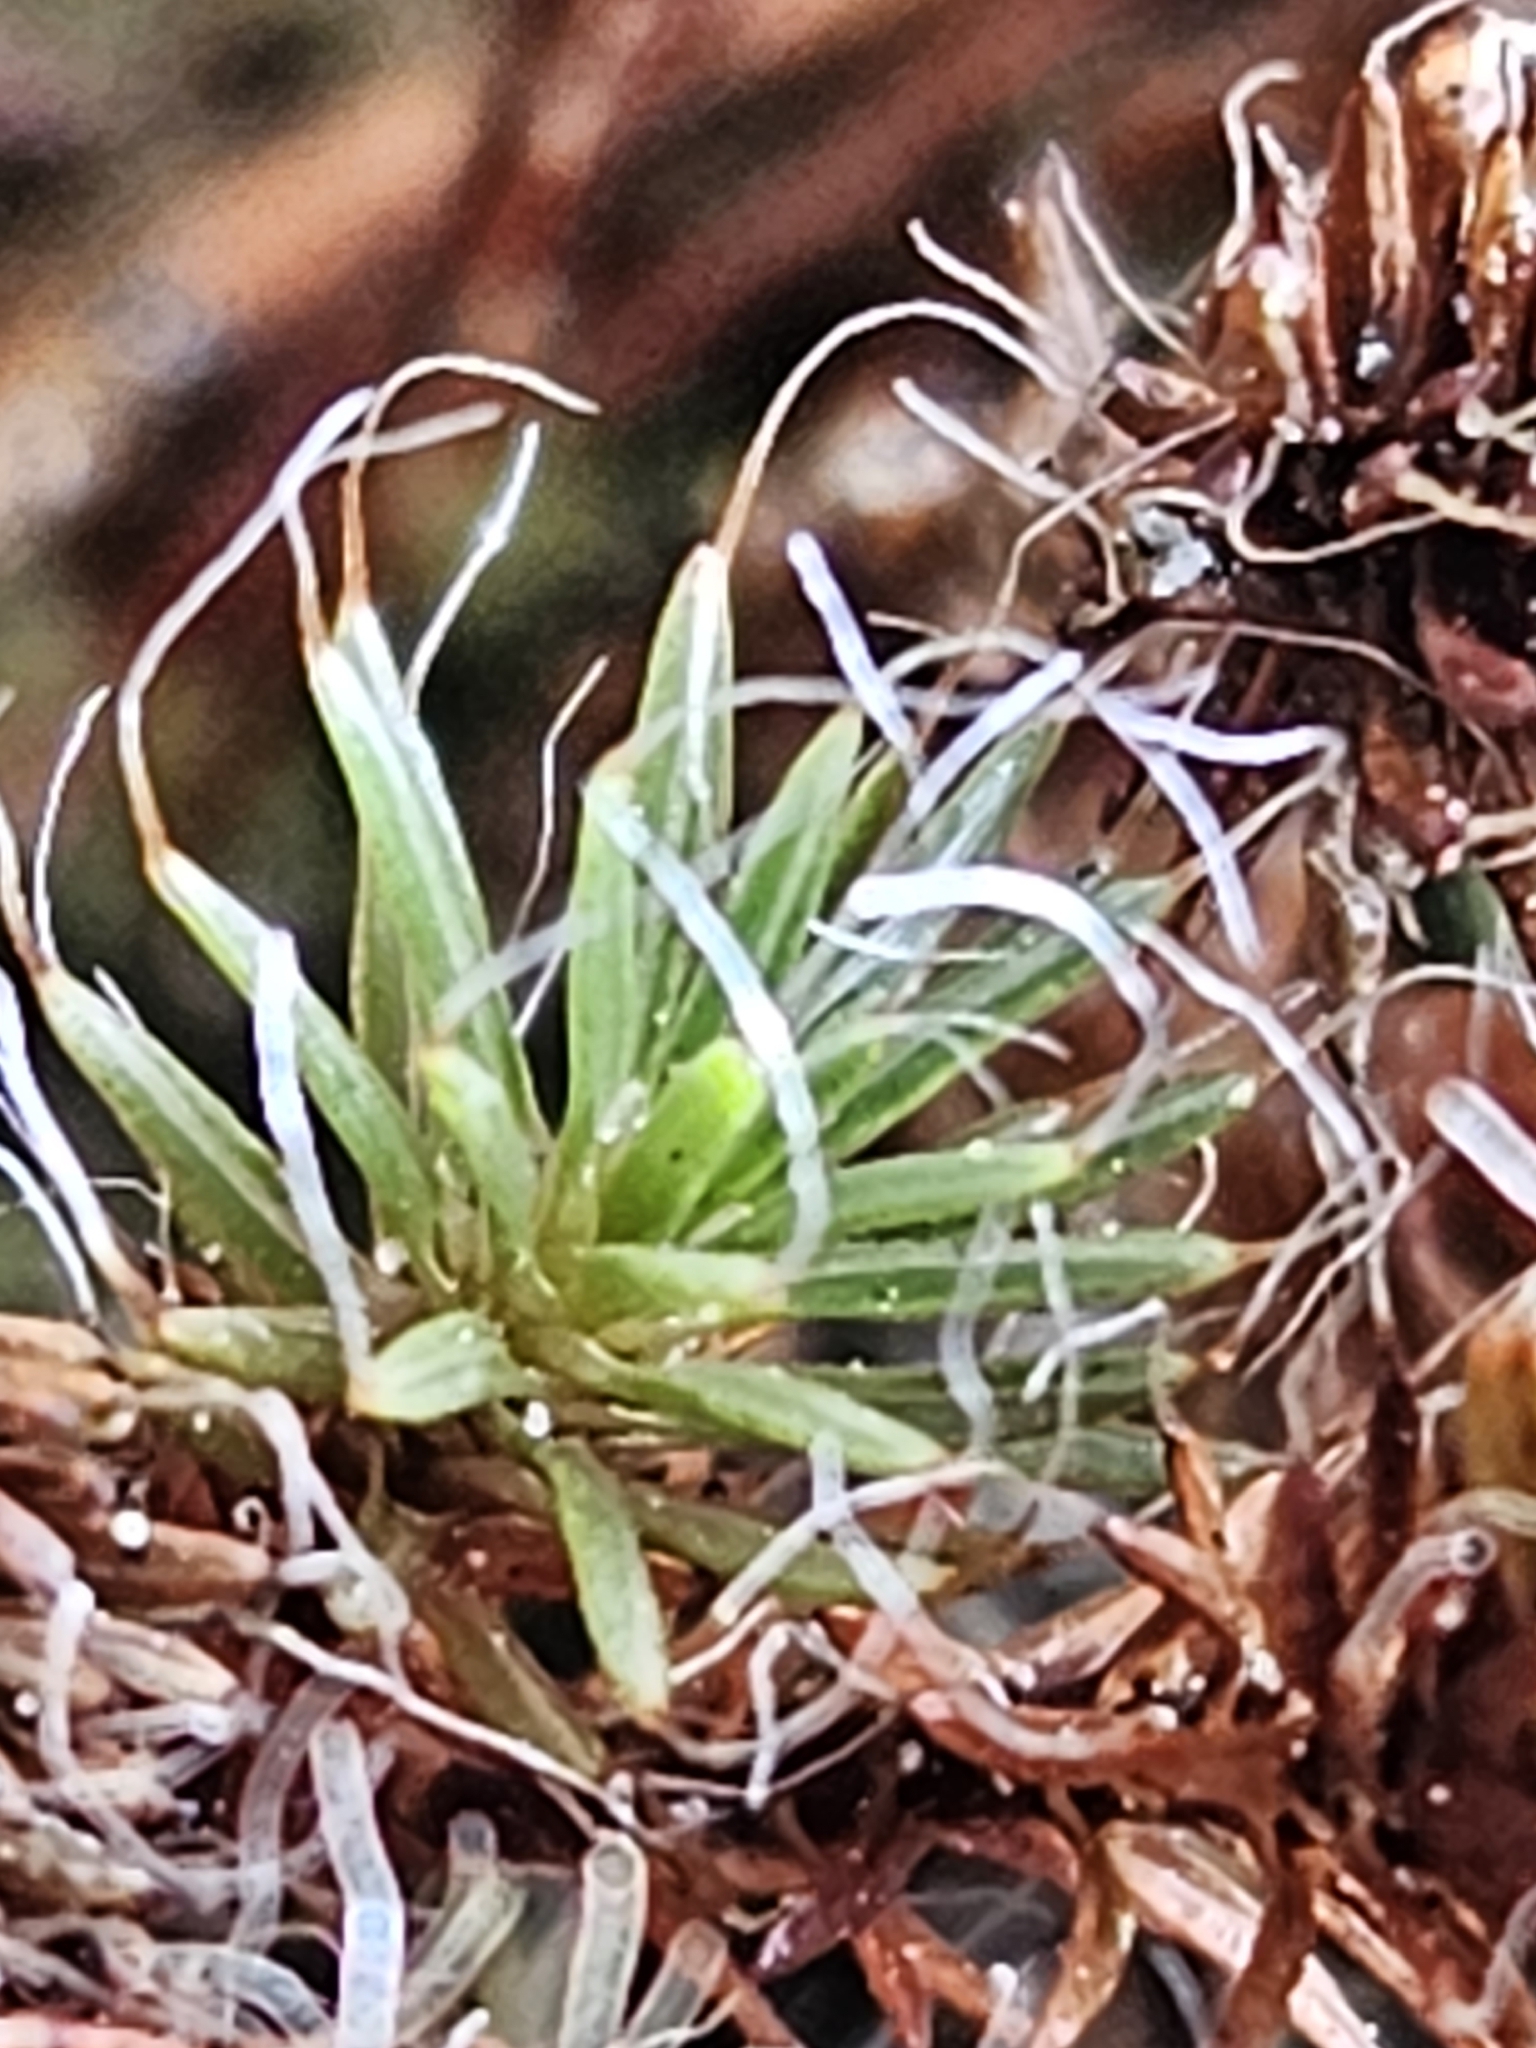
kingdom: Plantae
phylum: Bryophyta
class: Polytrichopsida
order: Polytrichales
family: Polytrichaceae
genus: Polytrichum
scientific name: Polytrichum piliferum
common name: Bristly haircap
